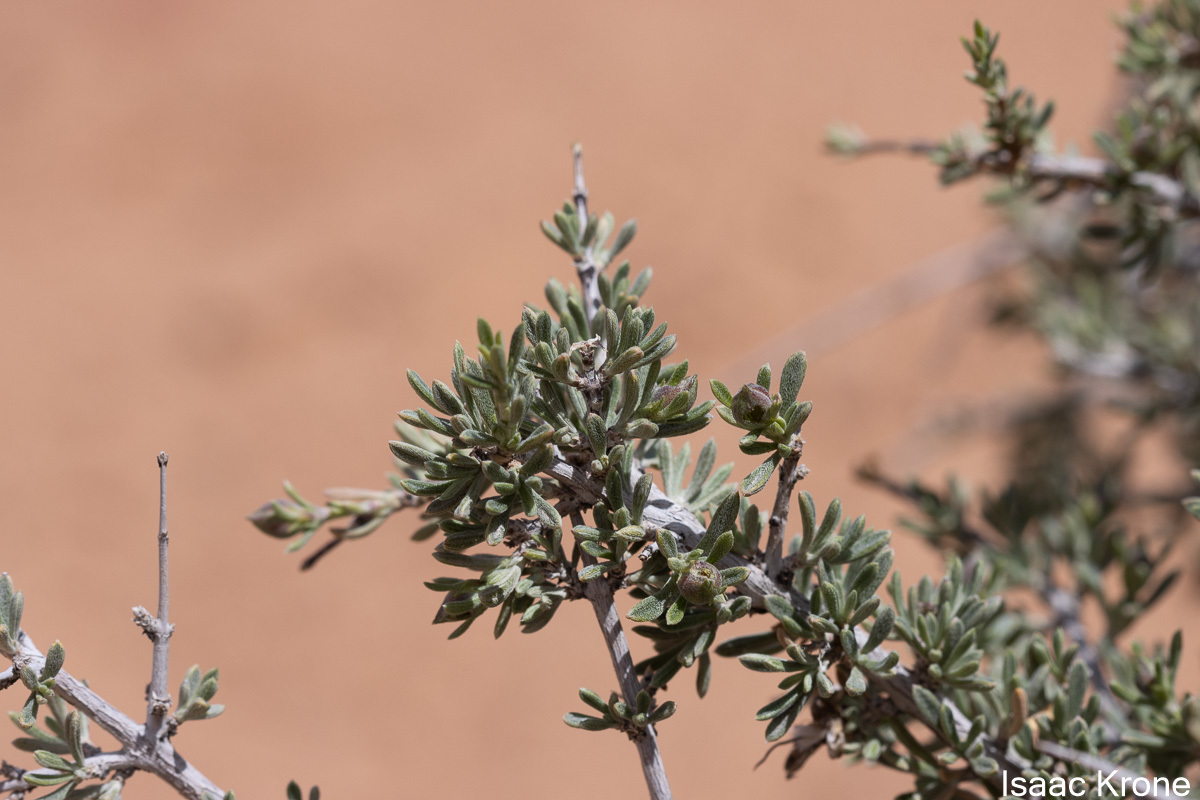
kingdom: Plantae
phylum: Tracheophyta
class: Magnoliopsida
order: Rosales
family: Rosaceae
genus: Coleogyne
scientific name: Coleogyne ramosissima
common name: Blackbrush
